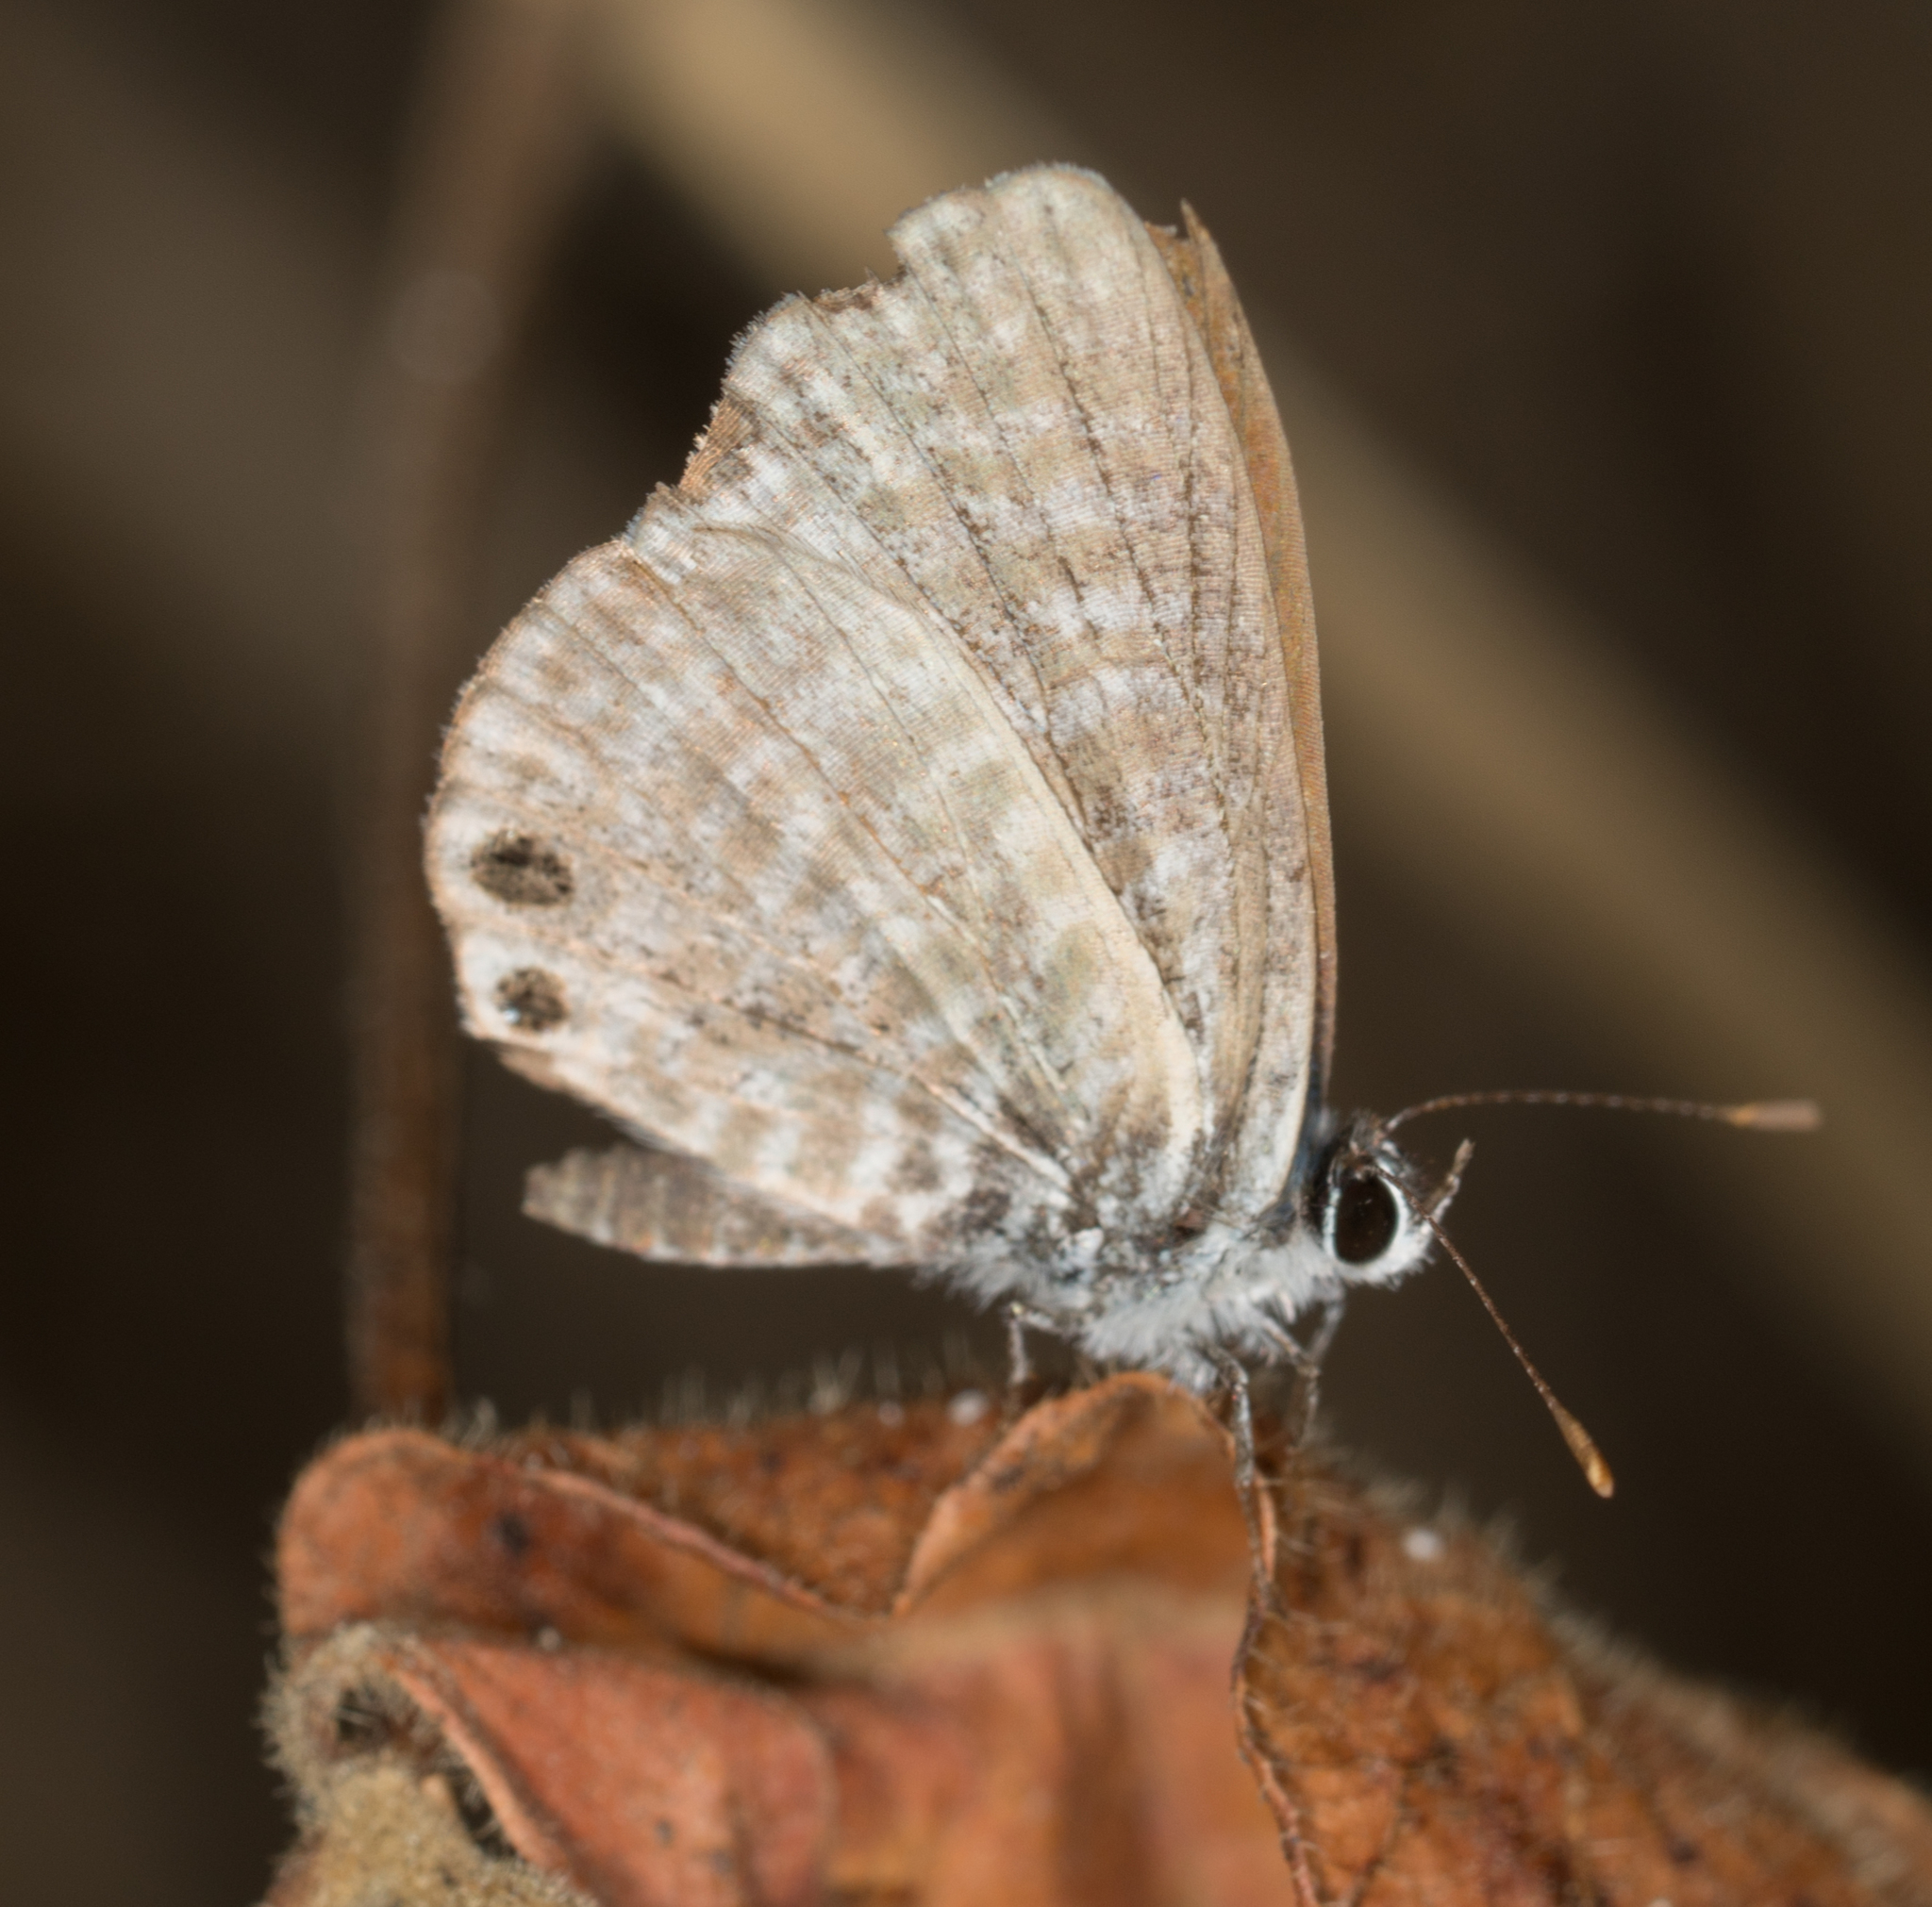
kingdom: Animalia
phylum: Arthropoda
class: Insecta
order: Lepidoptera
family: Lycaenidae
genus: Leptotes
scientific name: Leptotes marina
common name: Marine blue
